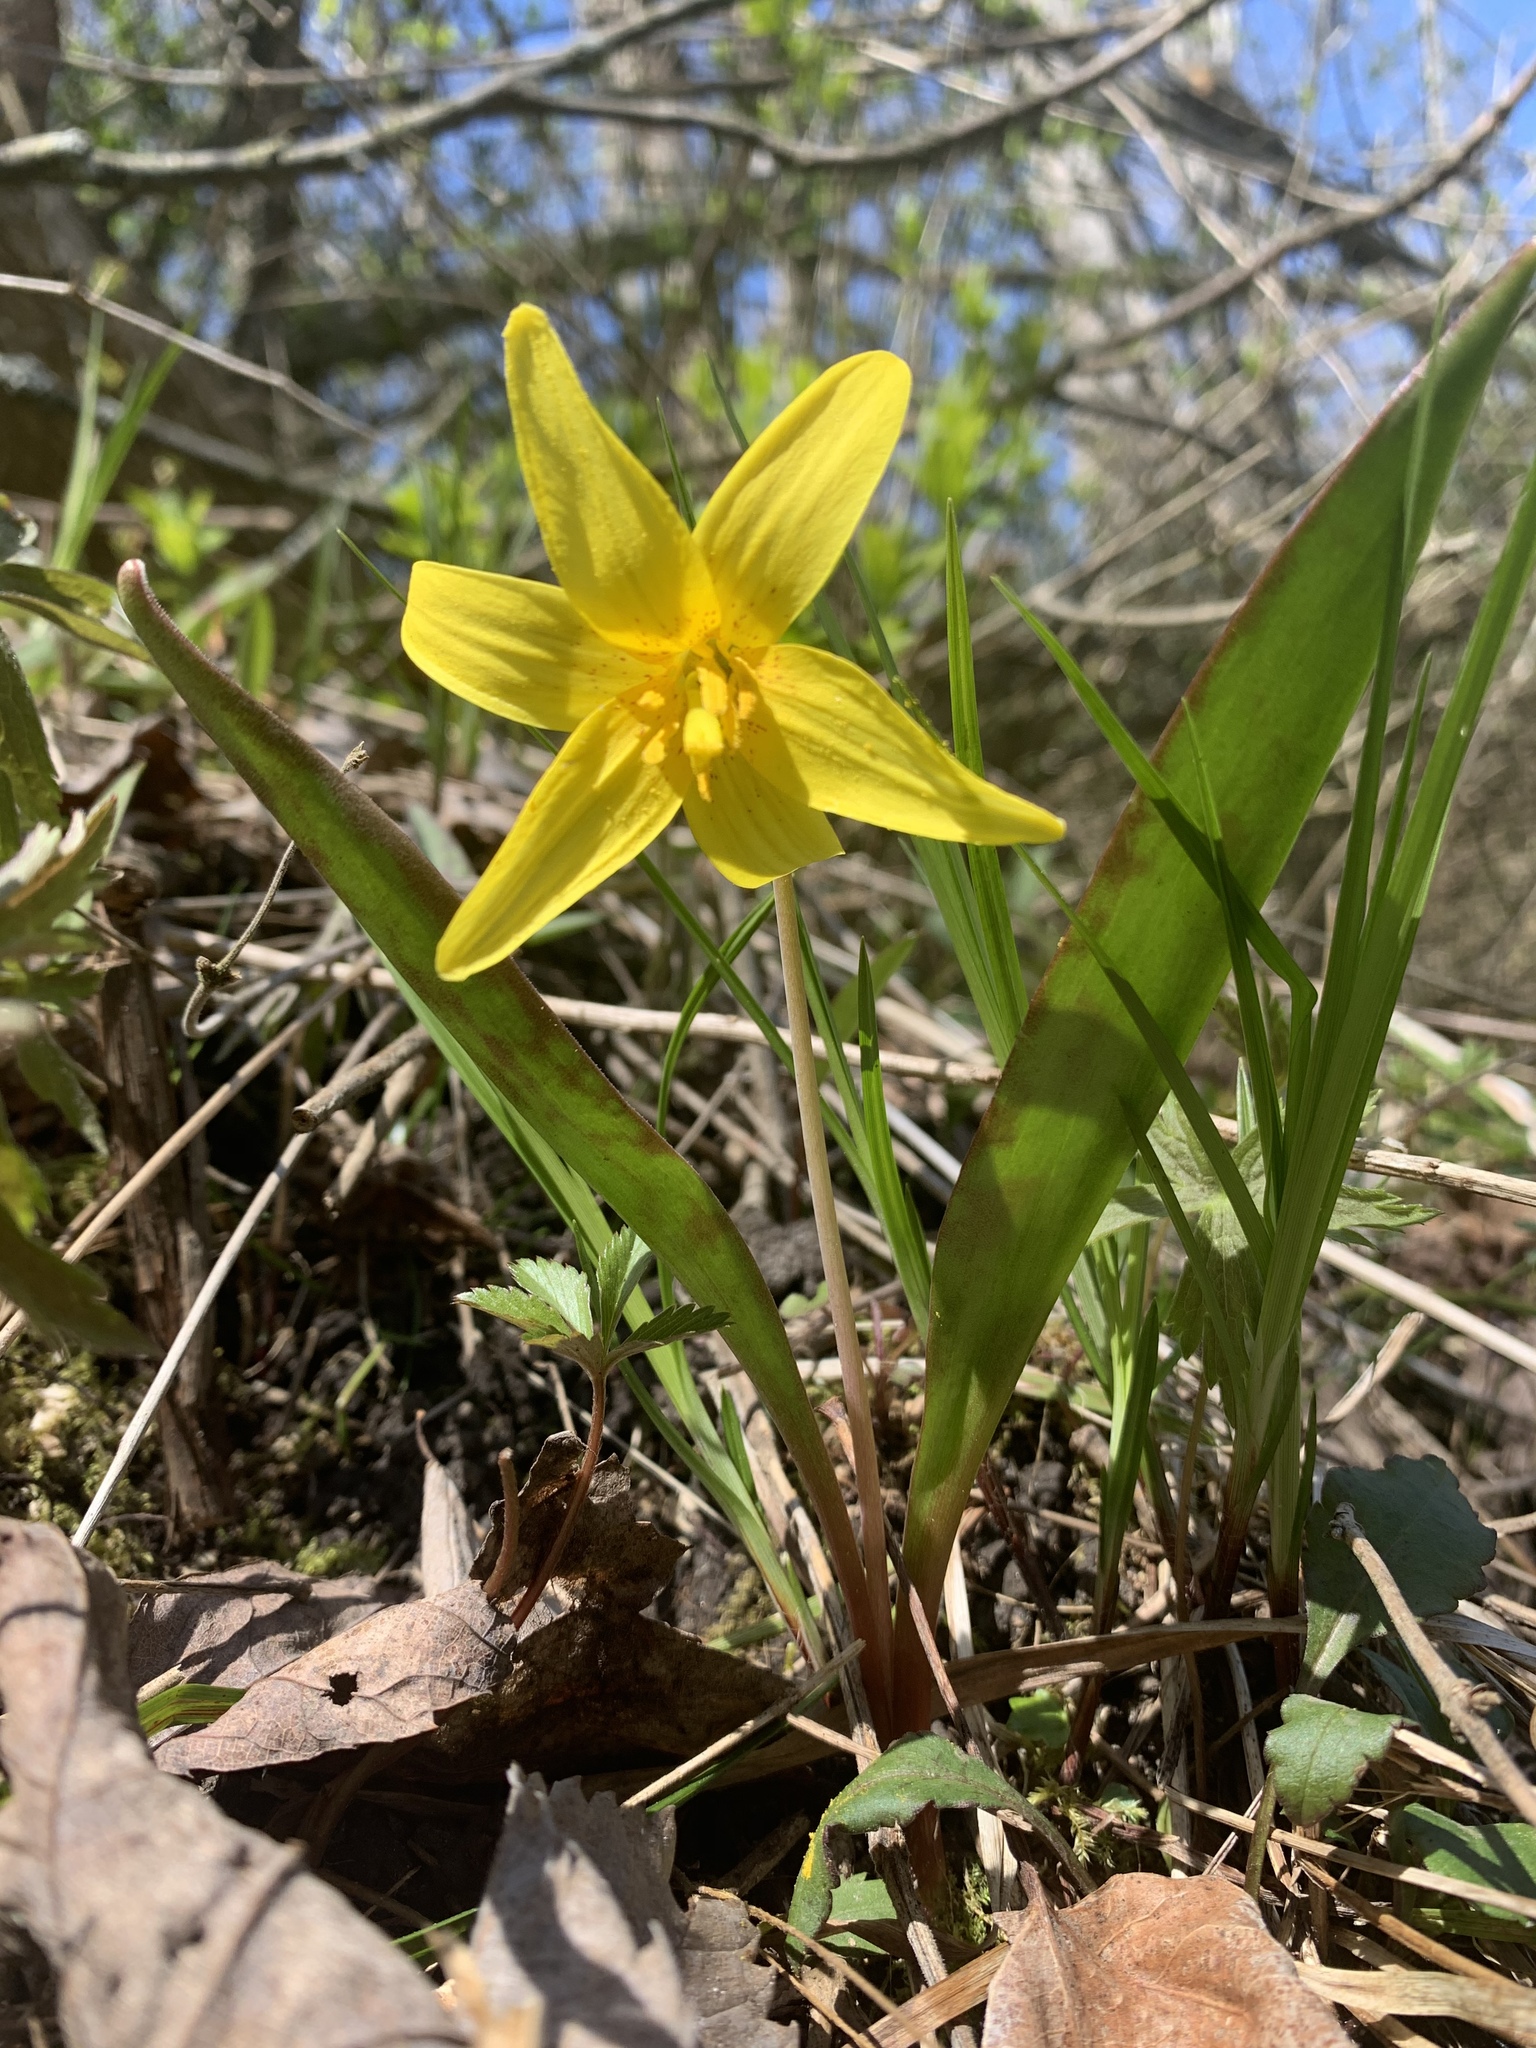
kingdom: Plantae
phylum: Tracheophyta
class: Liliopsida
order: Liliales
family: Liliaceae
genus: Erythronium
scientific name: Erythronium americanum
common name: Yellow adder's-tongue
